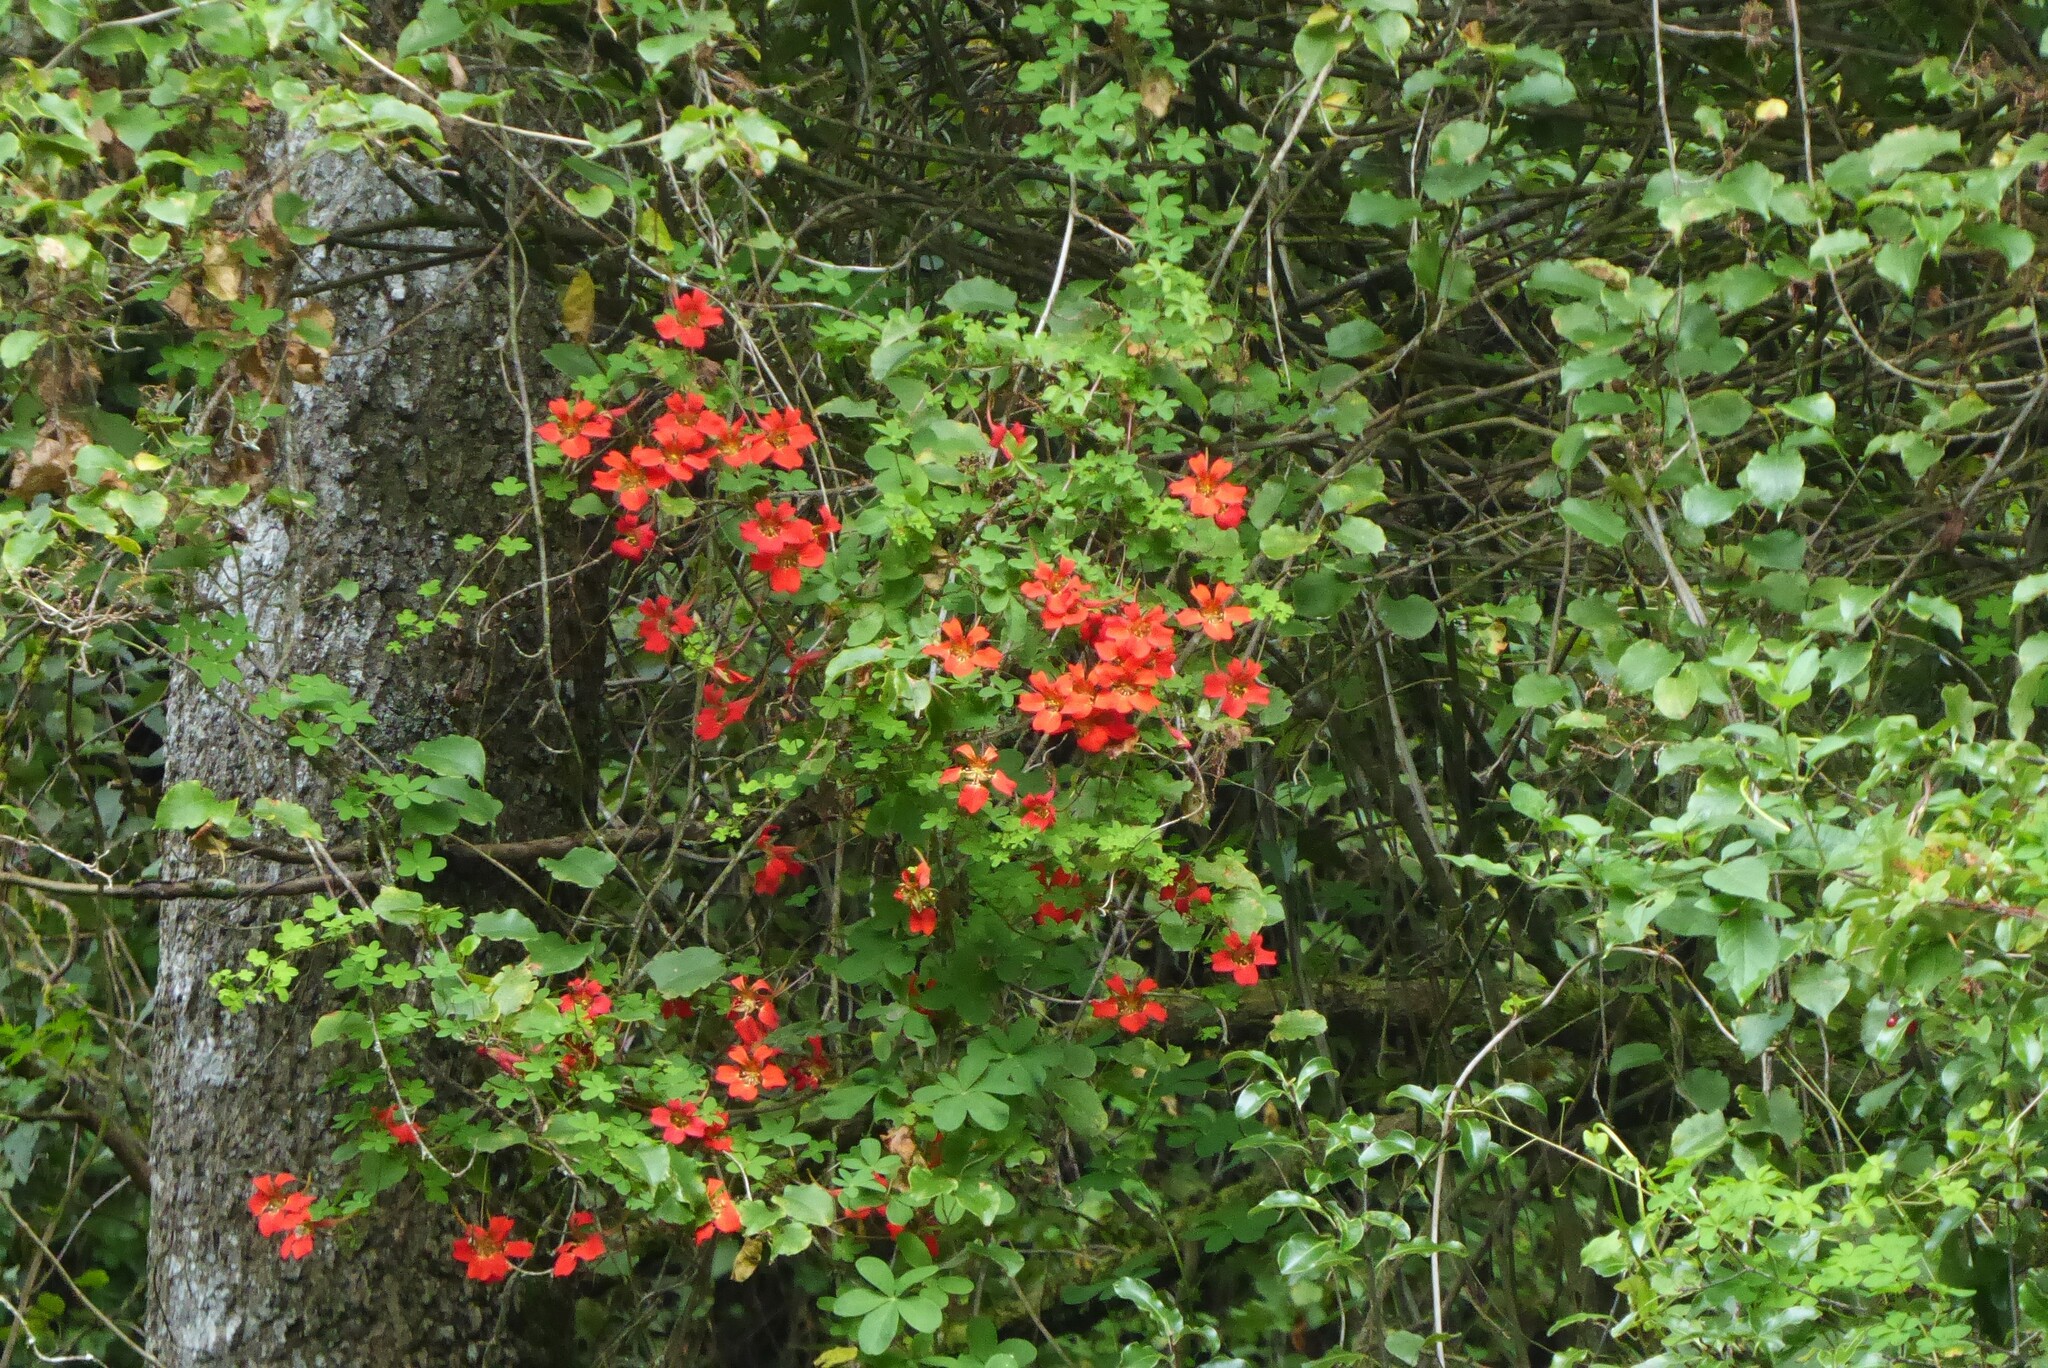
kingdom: Plantae
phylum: Tracheophyta
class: Magnoliopsida
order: Brassicales
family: Tropaeolaceae
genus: Tropaeolum
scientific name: Tropaeolum speciosum
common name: Flame nasturtium
